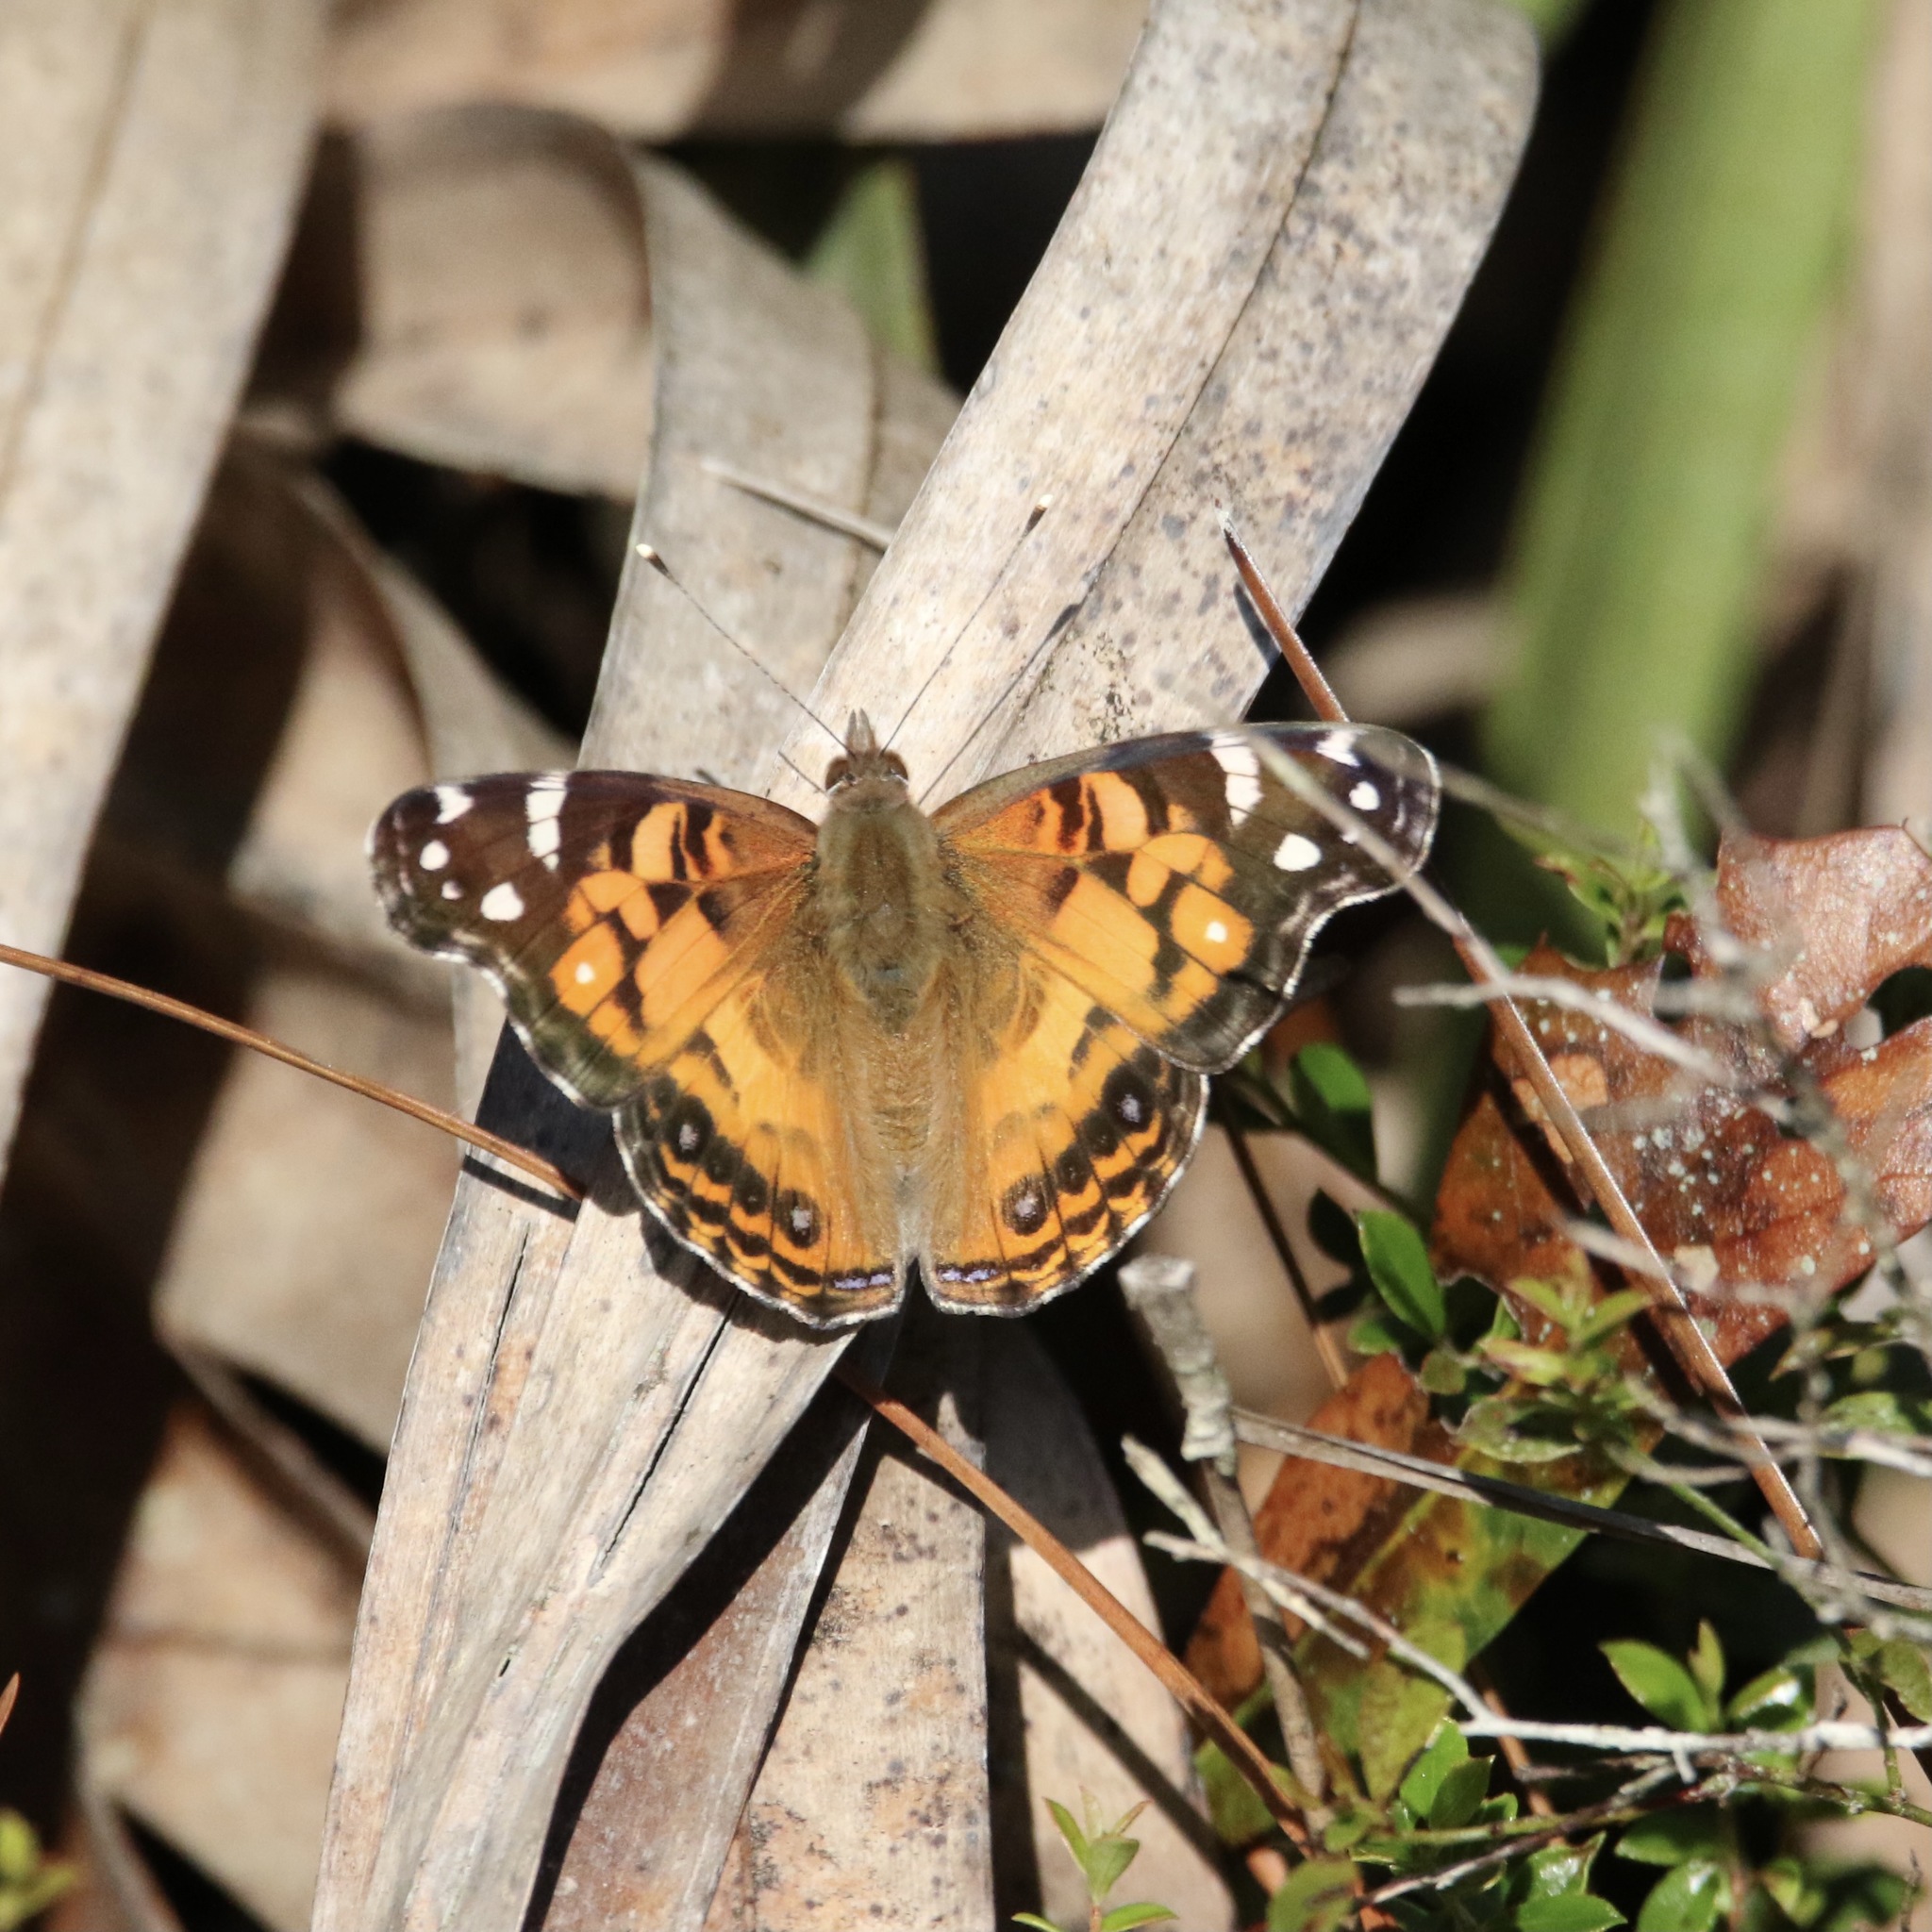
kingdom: Animalia
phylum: Arthropoda
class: Insecta
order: Lepidoptera
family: Nymphalidae
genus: Vanessa
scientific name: Vanessa virginiensis
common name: American lady
